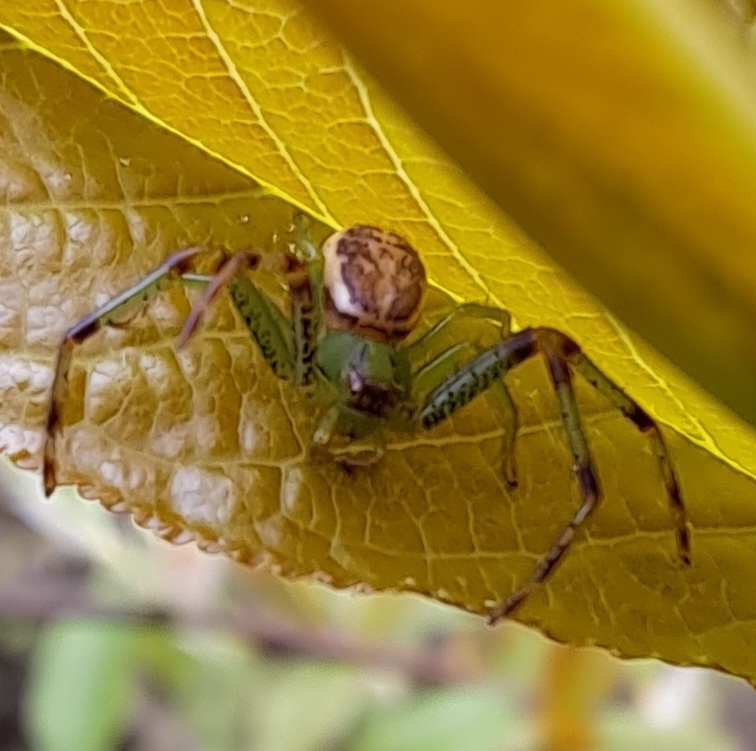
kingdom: Animalia
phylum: Arthropoda
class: Arachnida
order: Araneae
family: Thomisidae
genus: Diaea
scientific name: Diaea dorsata
